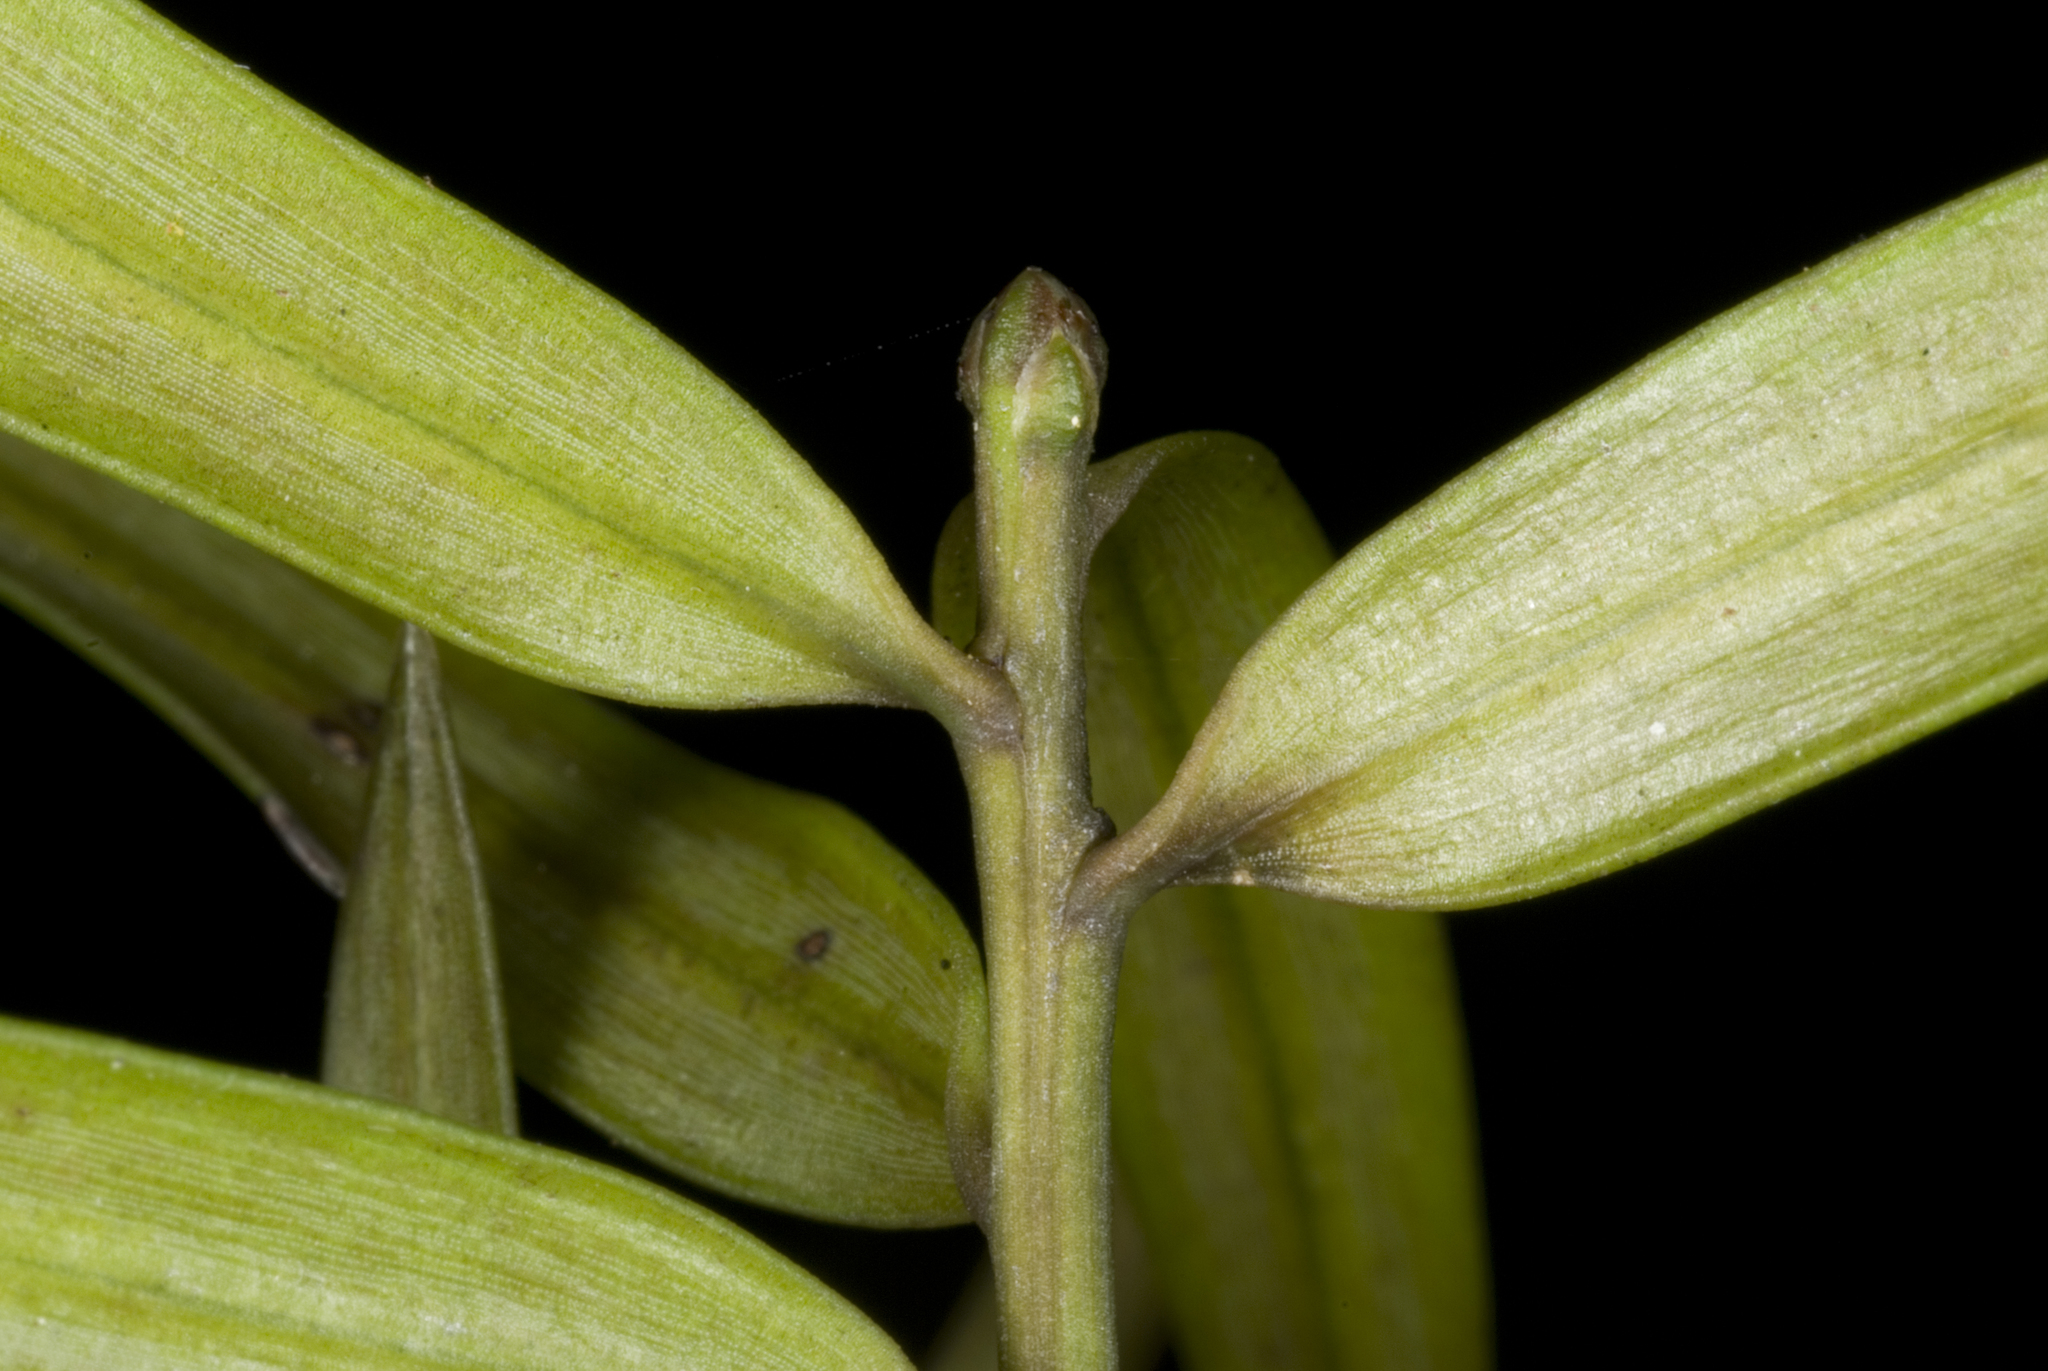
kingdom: Plantae
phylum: Tracheophyta
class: Pinopsida
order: Pinales
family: Podocarpaceae
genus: Podocarpus
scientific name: Podocarpus laetus
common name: Hall's totara
